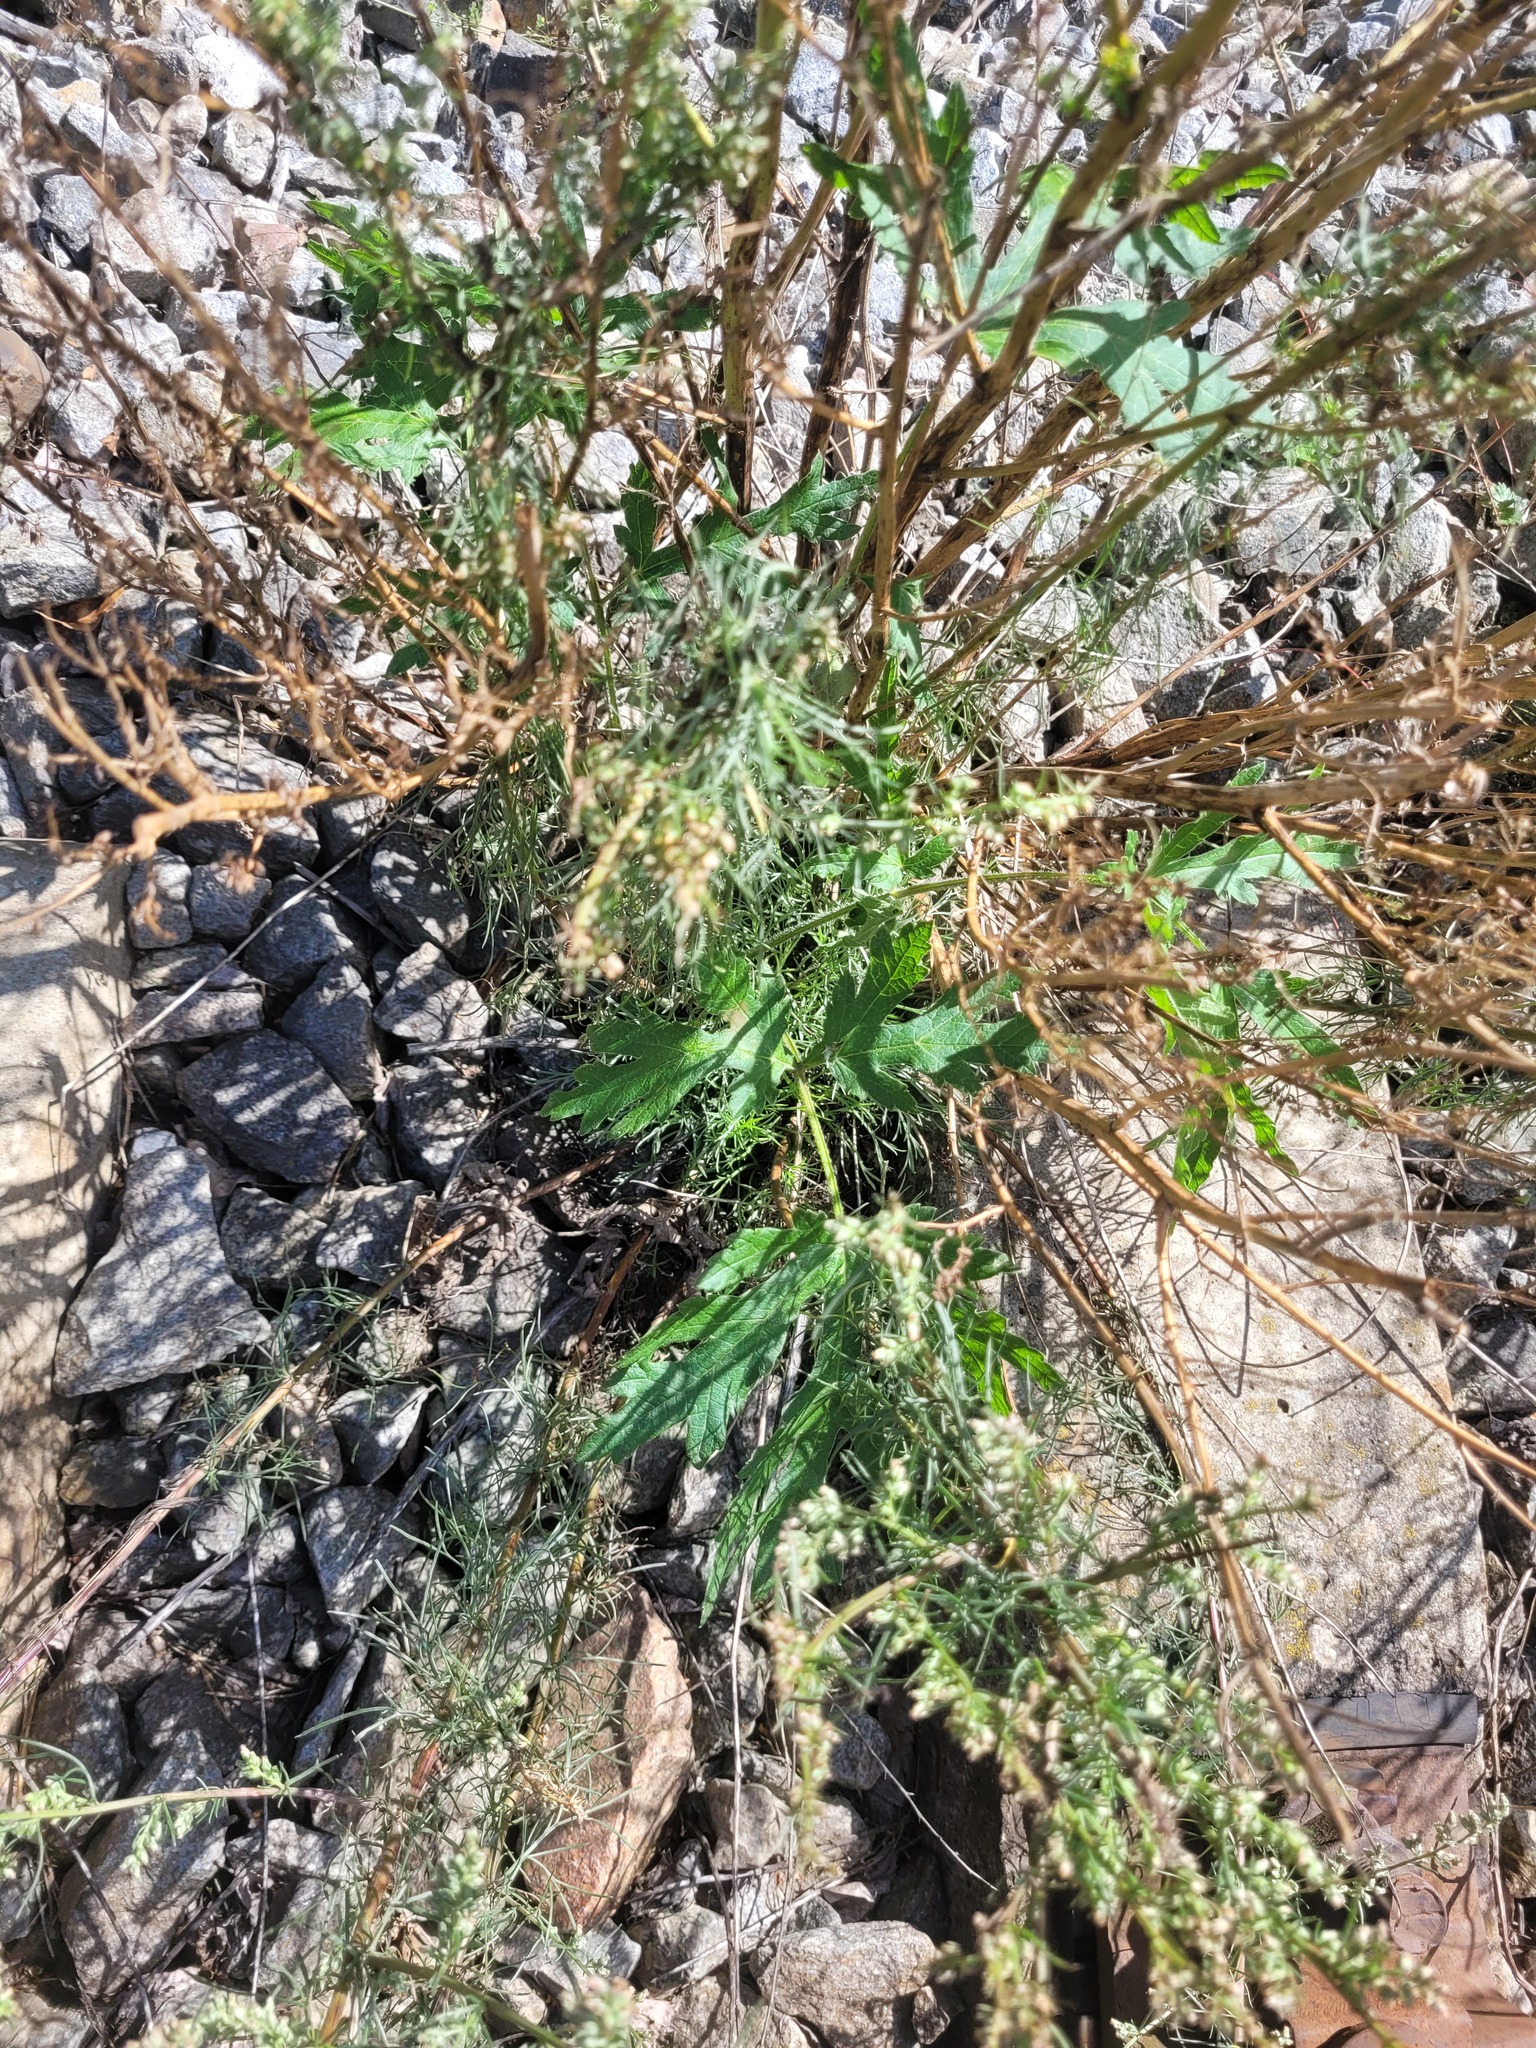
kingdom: Plantae
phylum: Tracheophyta
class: Magnoliopsida
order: Apiales
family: Apiaceae
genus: Heracleum
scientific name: Heracleum sphondylium
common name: Hogweed
